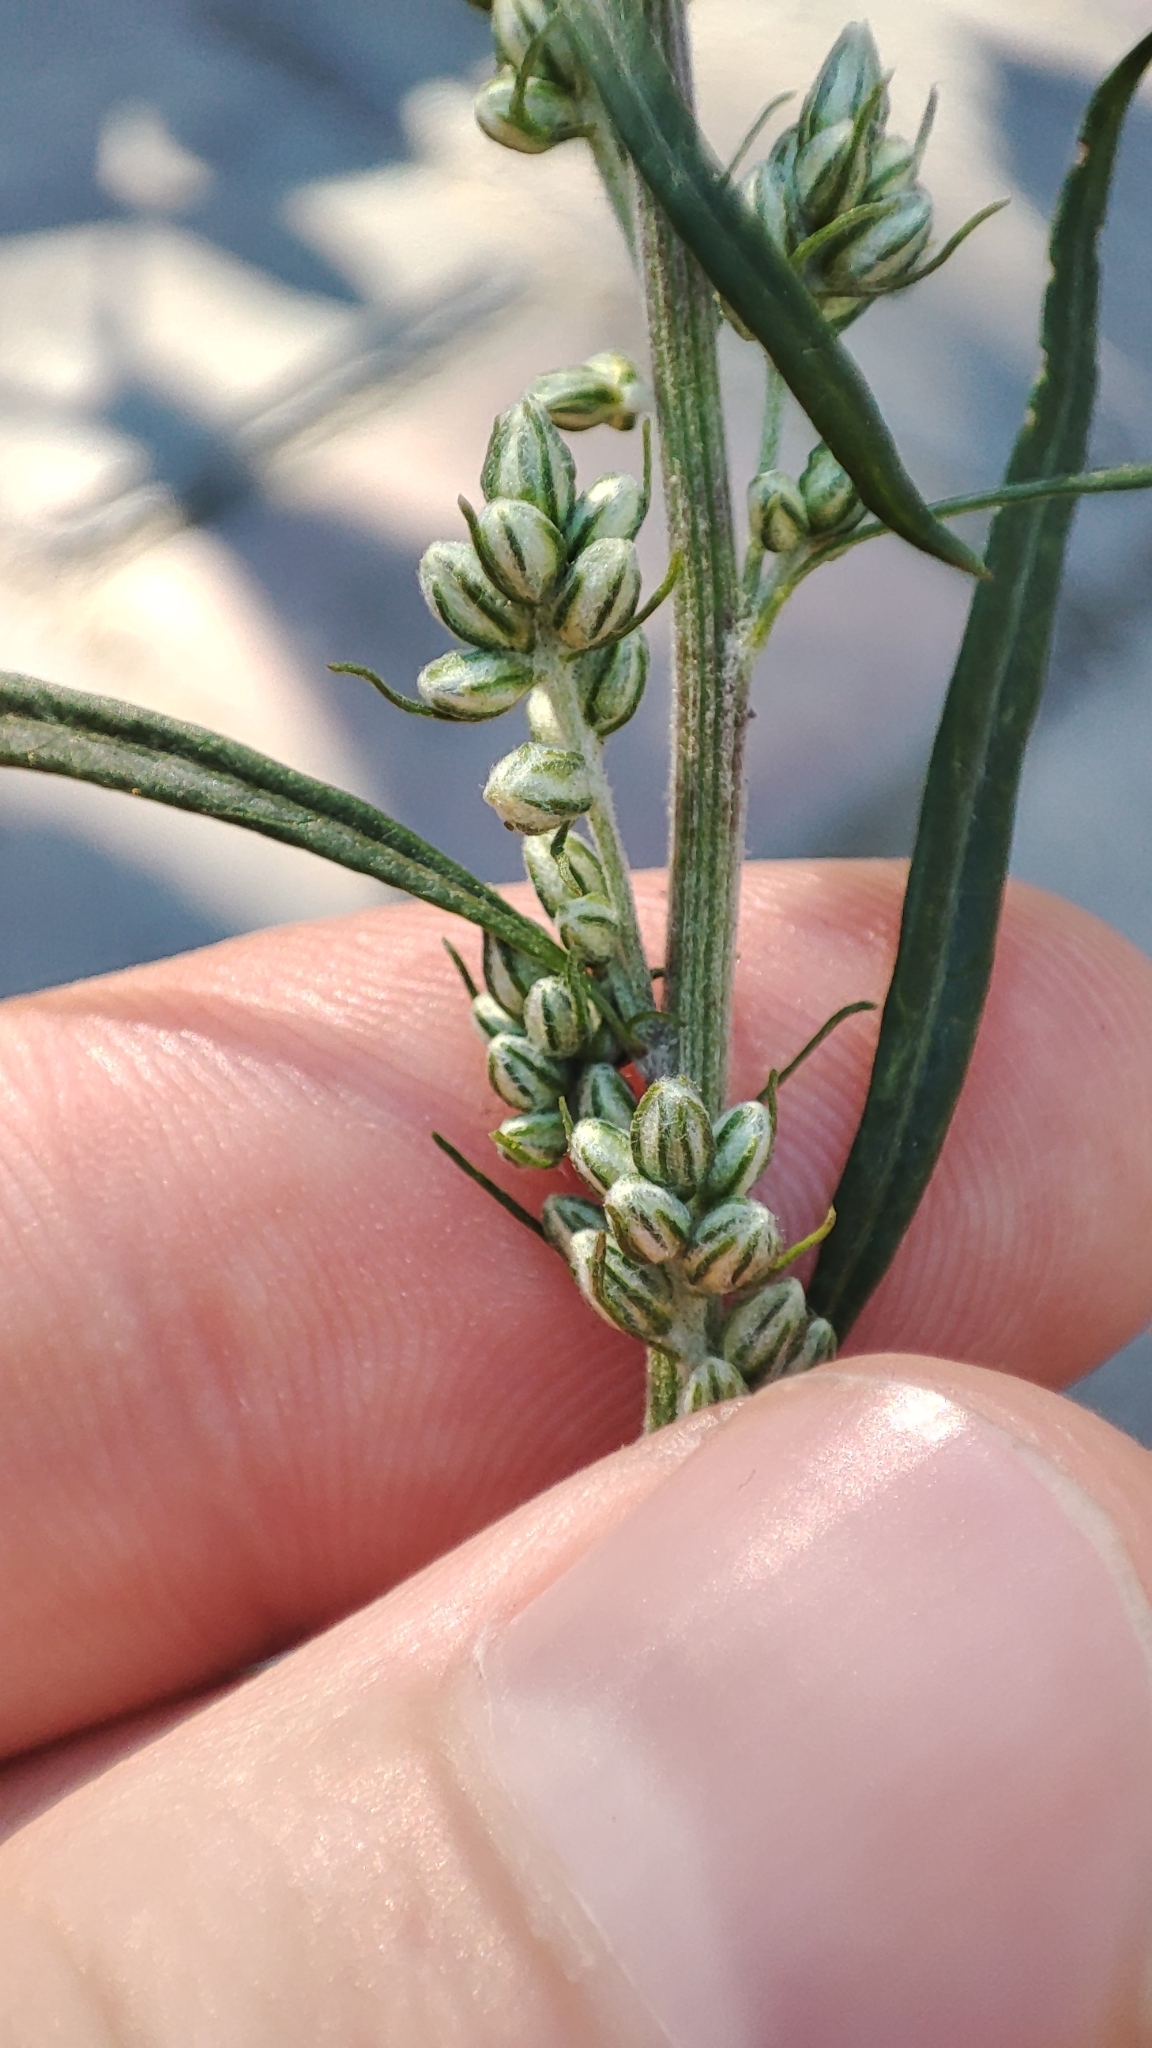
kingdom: Plantae
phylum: Tracheophyta
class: Magnoliopsida
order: Asterales
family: Asteraceae
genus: Artemisia
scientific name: Artemisia vulgaris
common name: Mugwort
